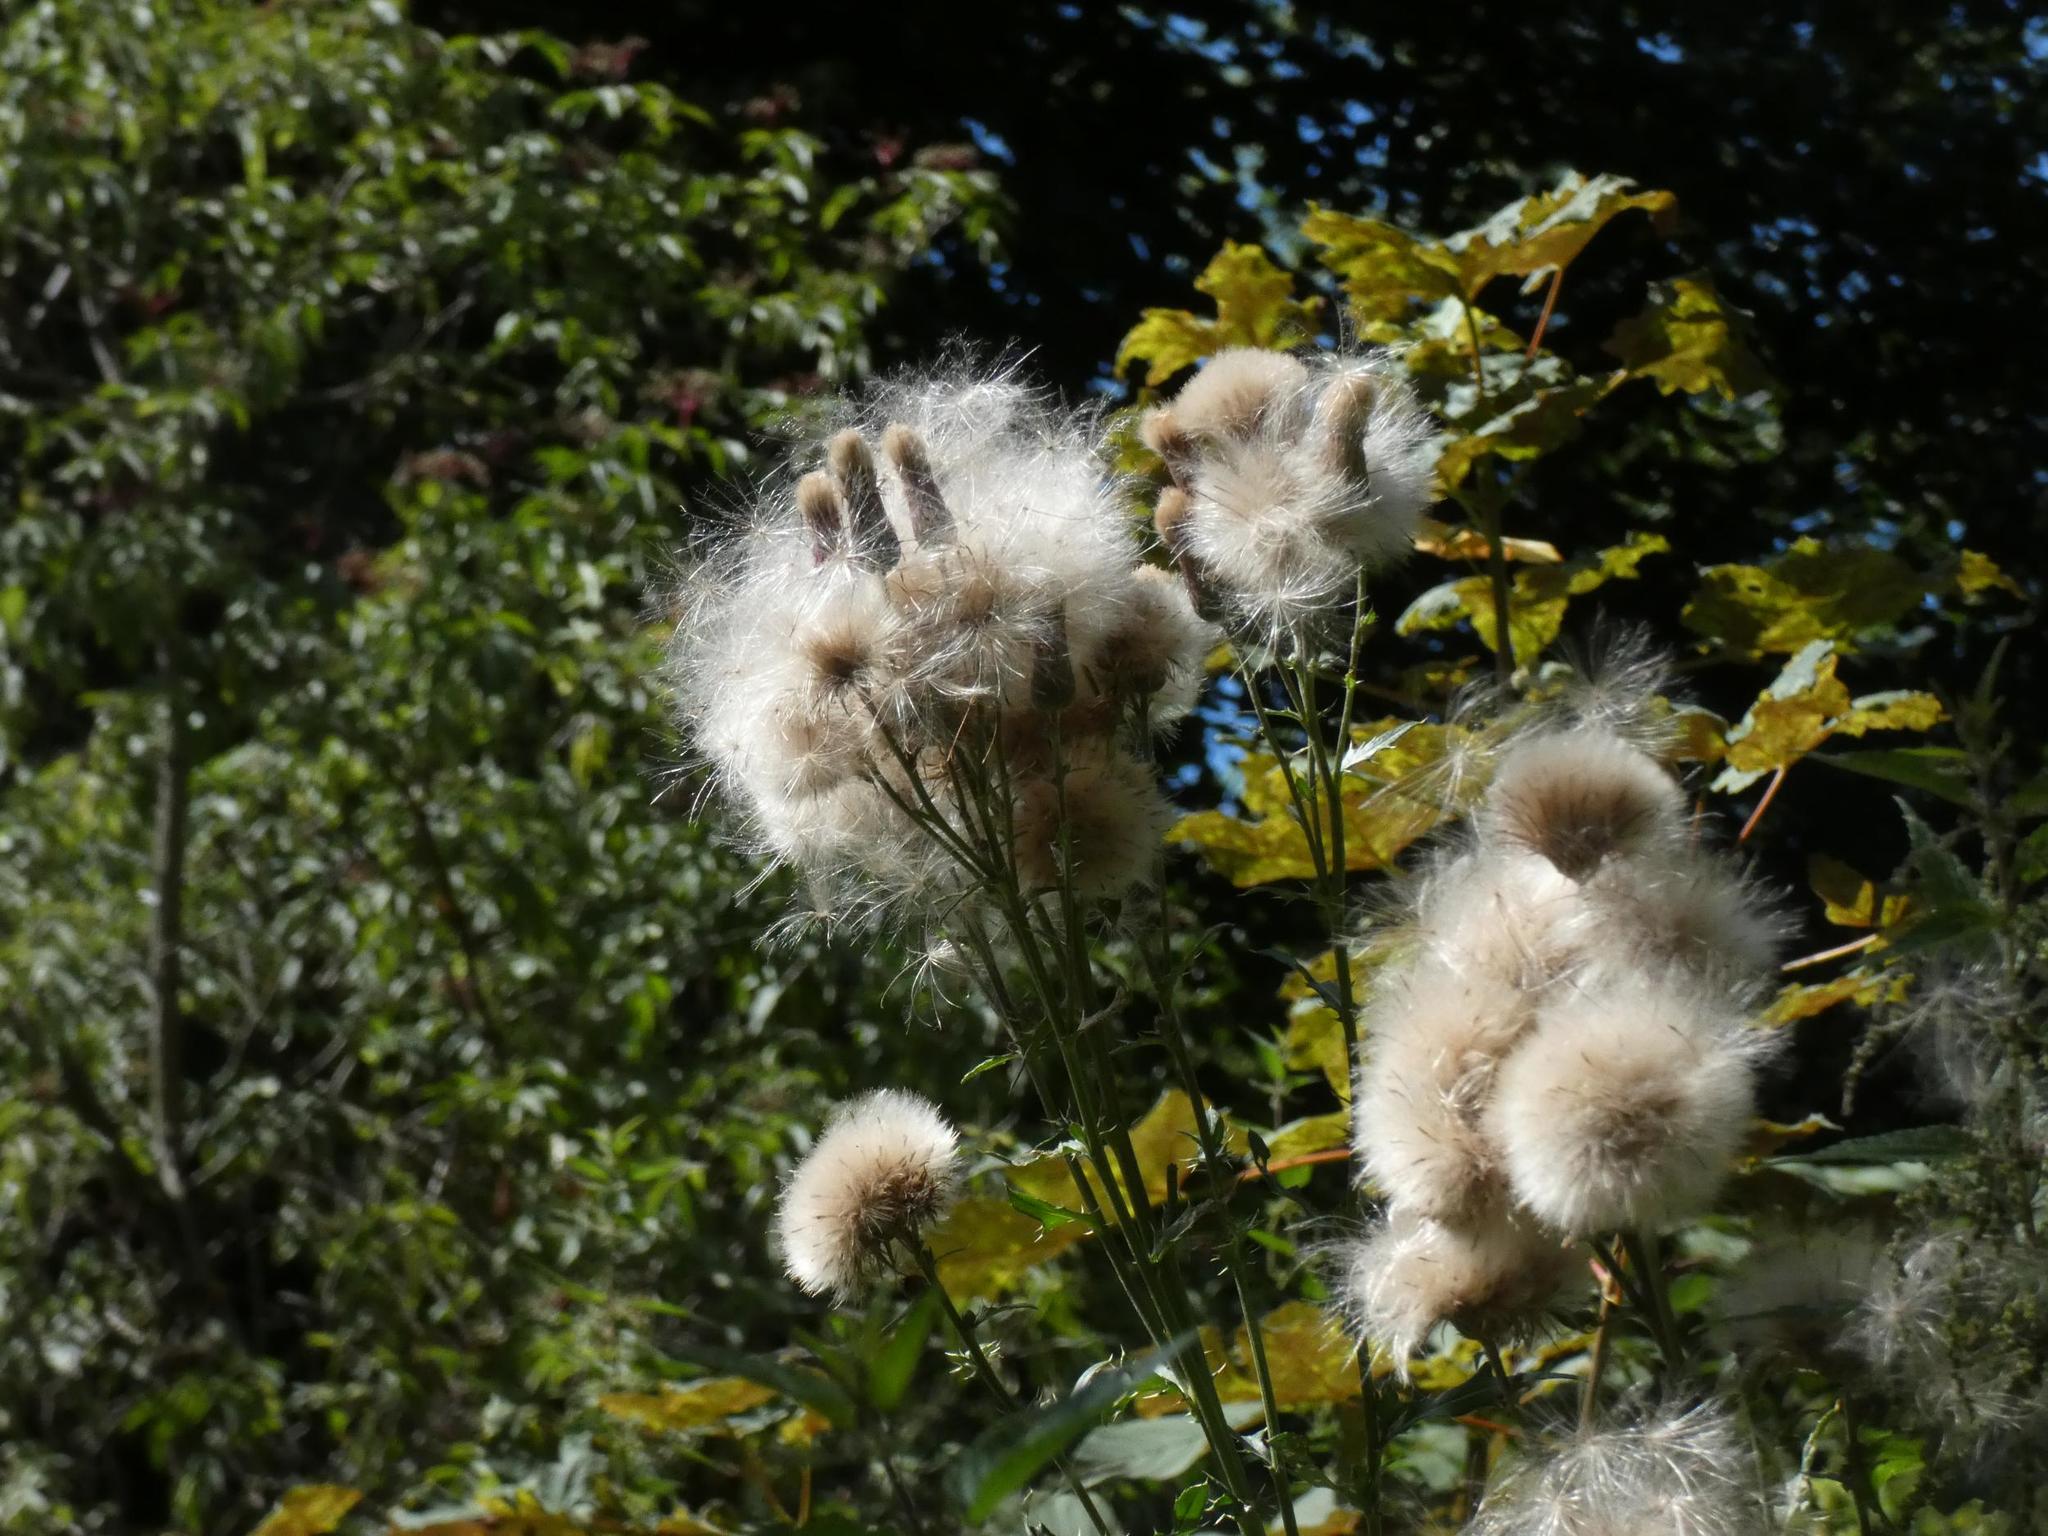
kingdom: Plantae
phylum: Tracheophyta
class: Magnoliopsida
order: Asterales
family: Asteraceae
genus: Cirsium
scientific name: Cirsium arvense
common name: Creeping thistle
